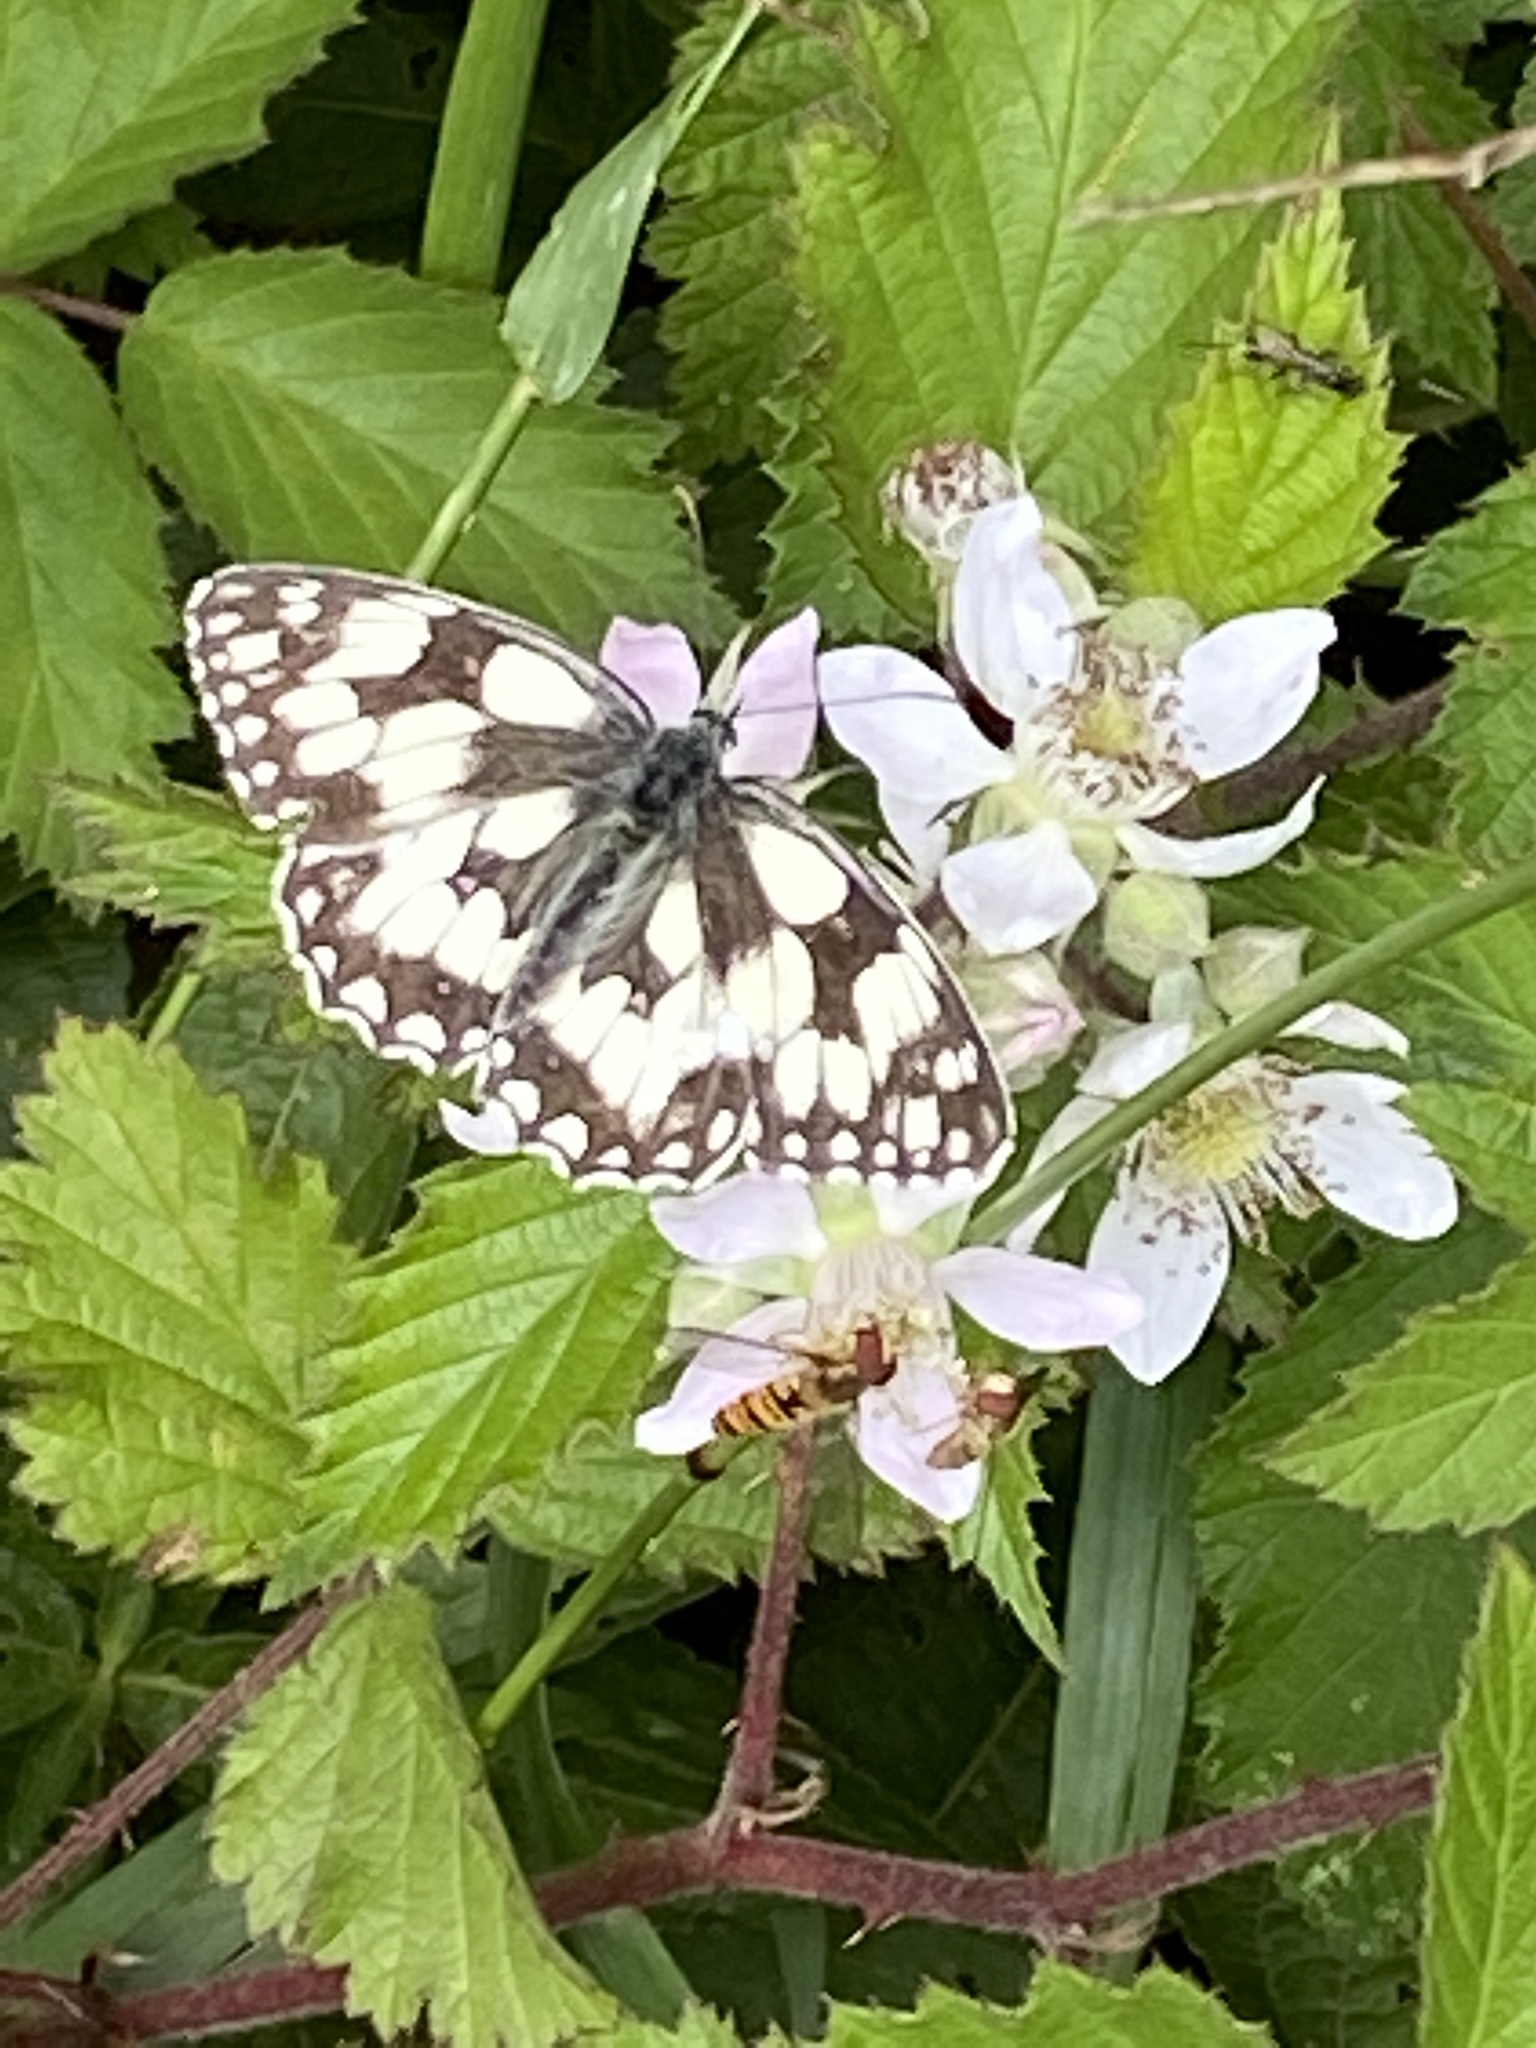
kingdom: Animalia
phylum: Arthropoda
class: Insecta
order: Lepidoptera
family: Nymphalidae
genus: Melanargia
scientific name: Melanargia galathea
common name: Marbled white
